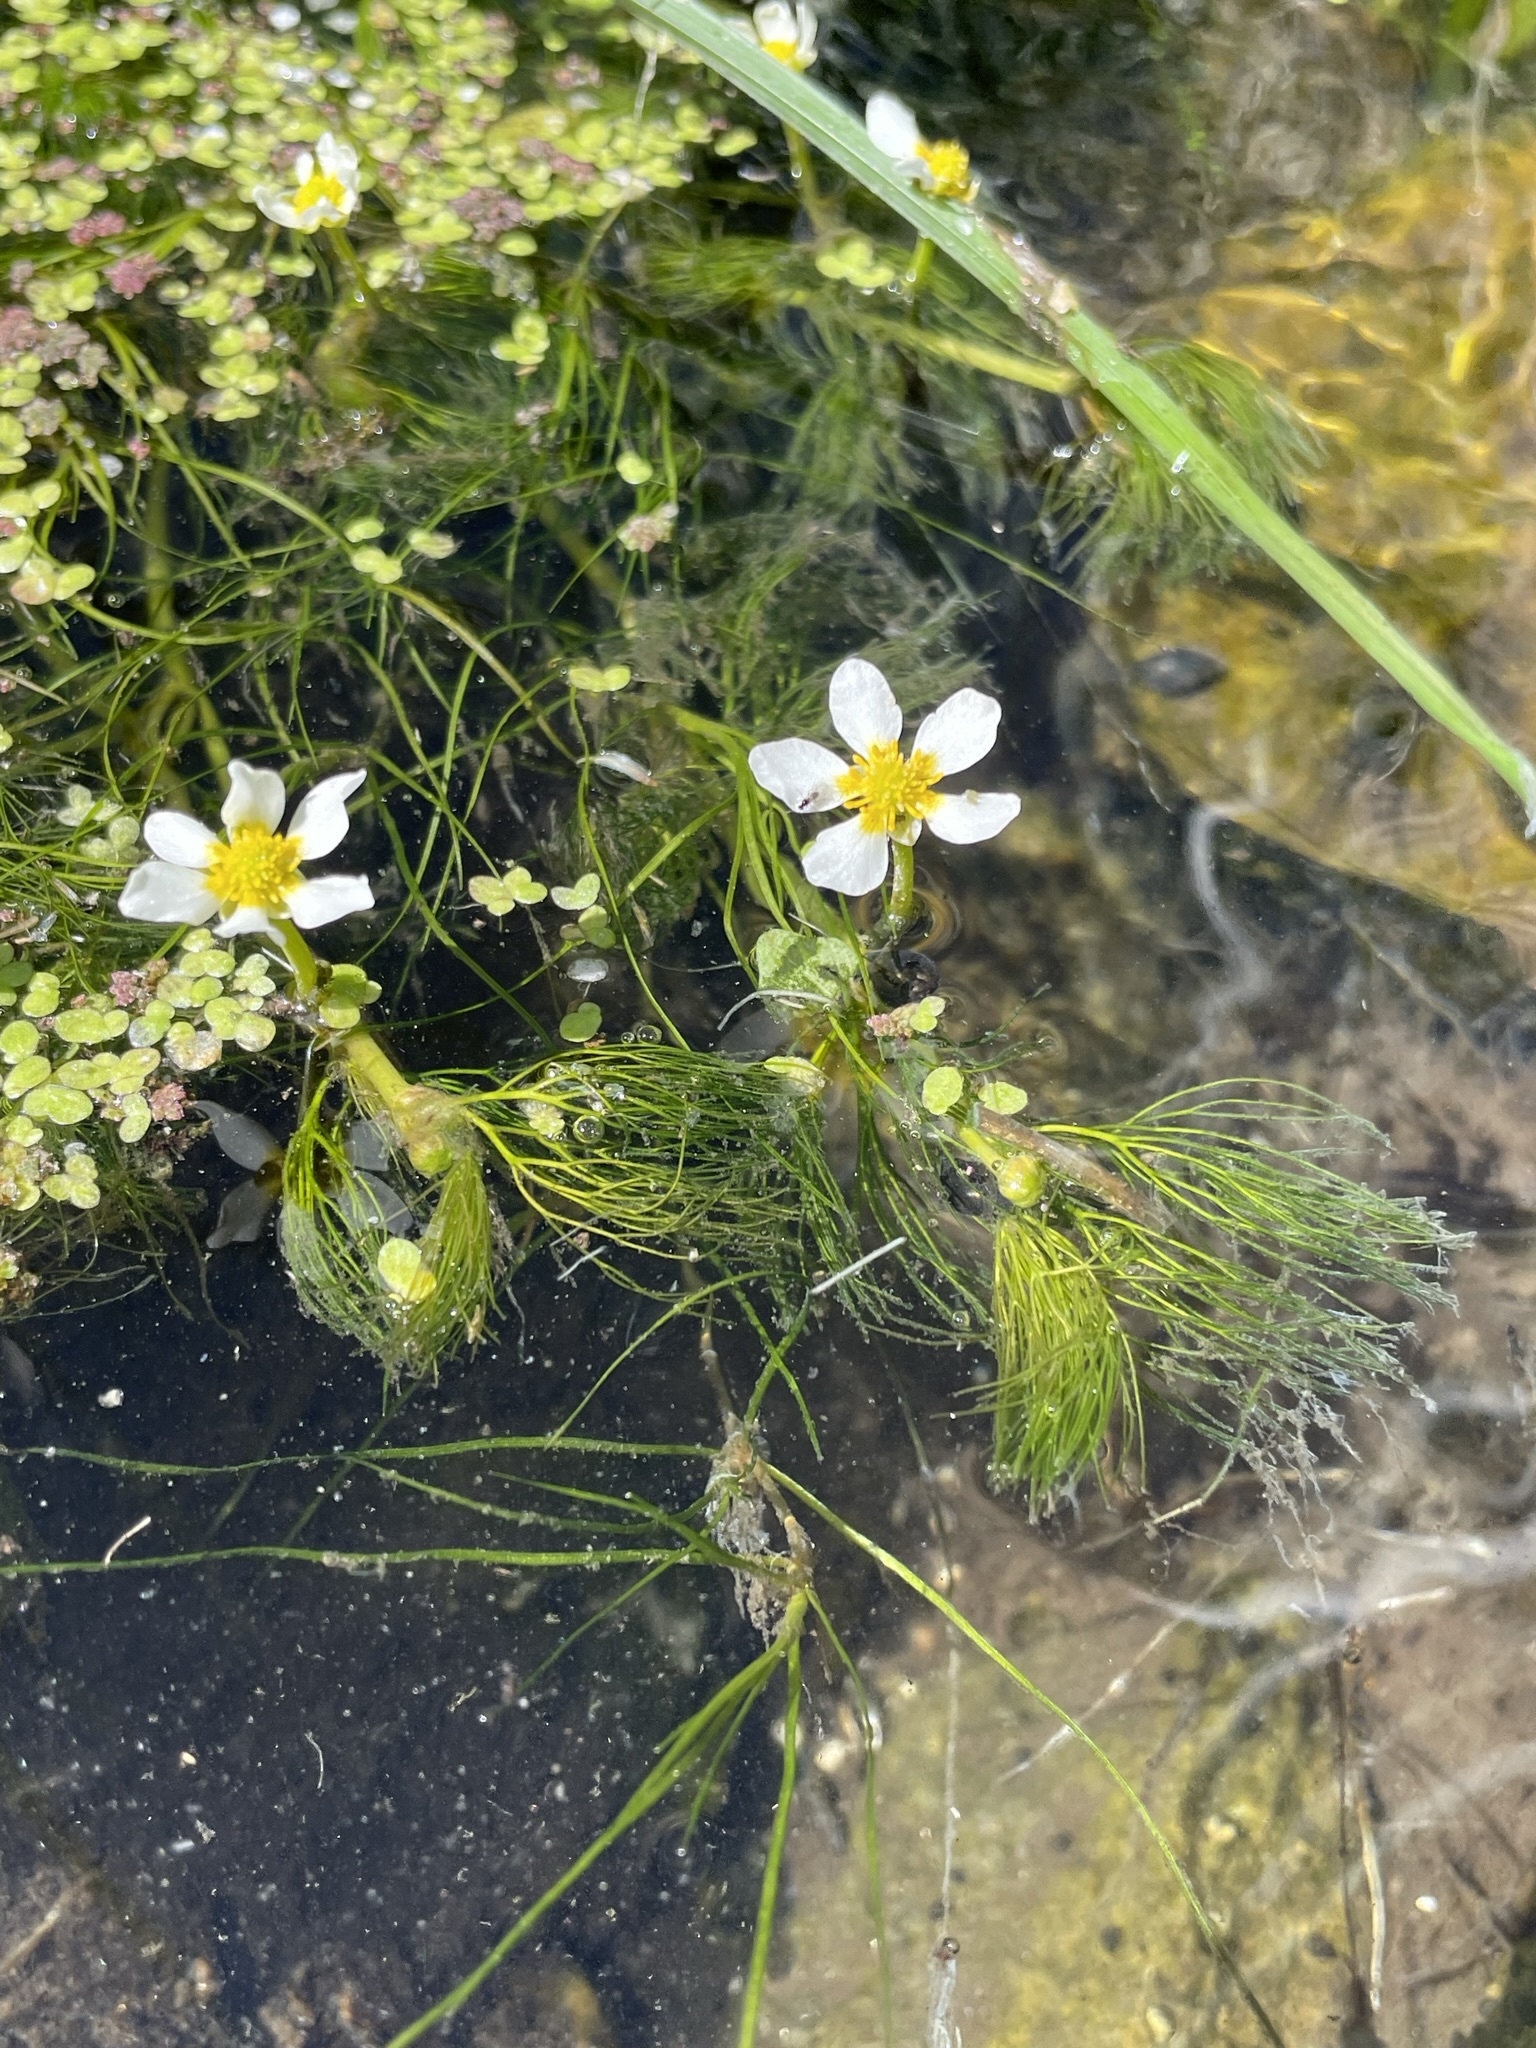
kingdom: Plantae
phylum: Tracheophyta
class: Magnoliopsida
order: Ranunculales
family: Ranunculaceae
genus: Ranunculus
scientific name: Ranunculus aquatilis
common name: Common water-crowfoot
